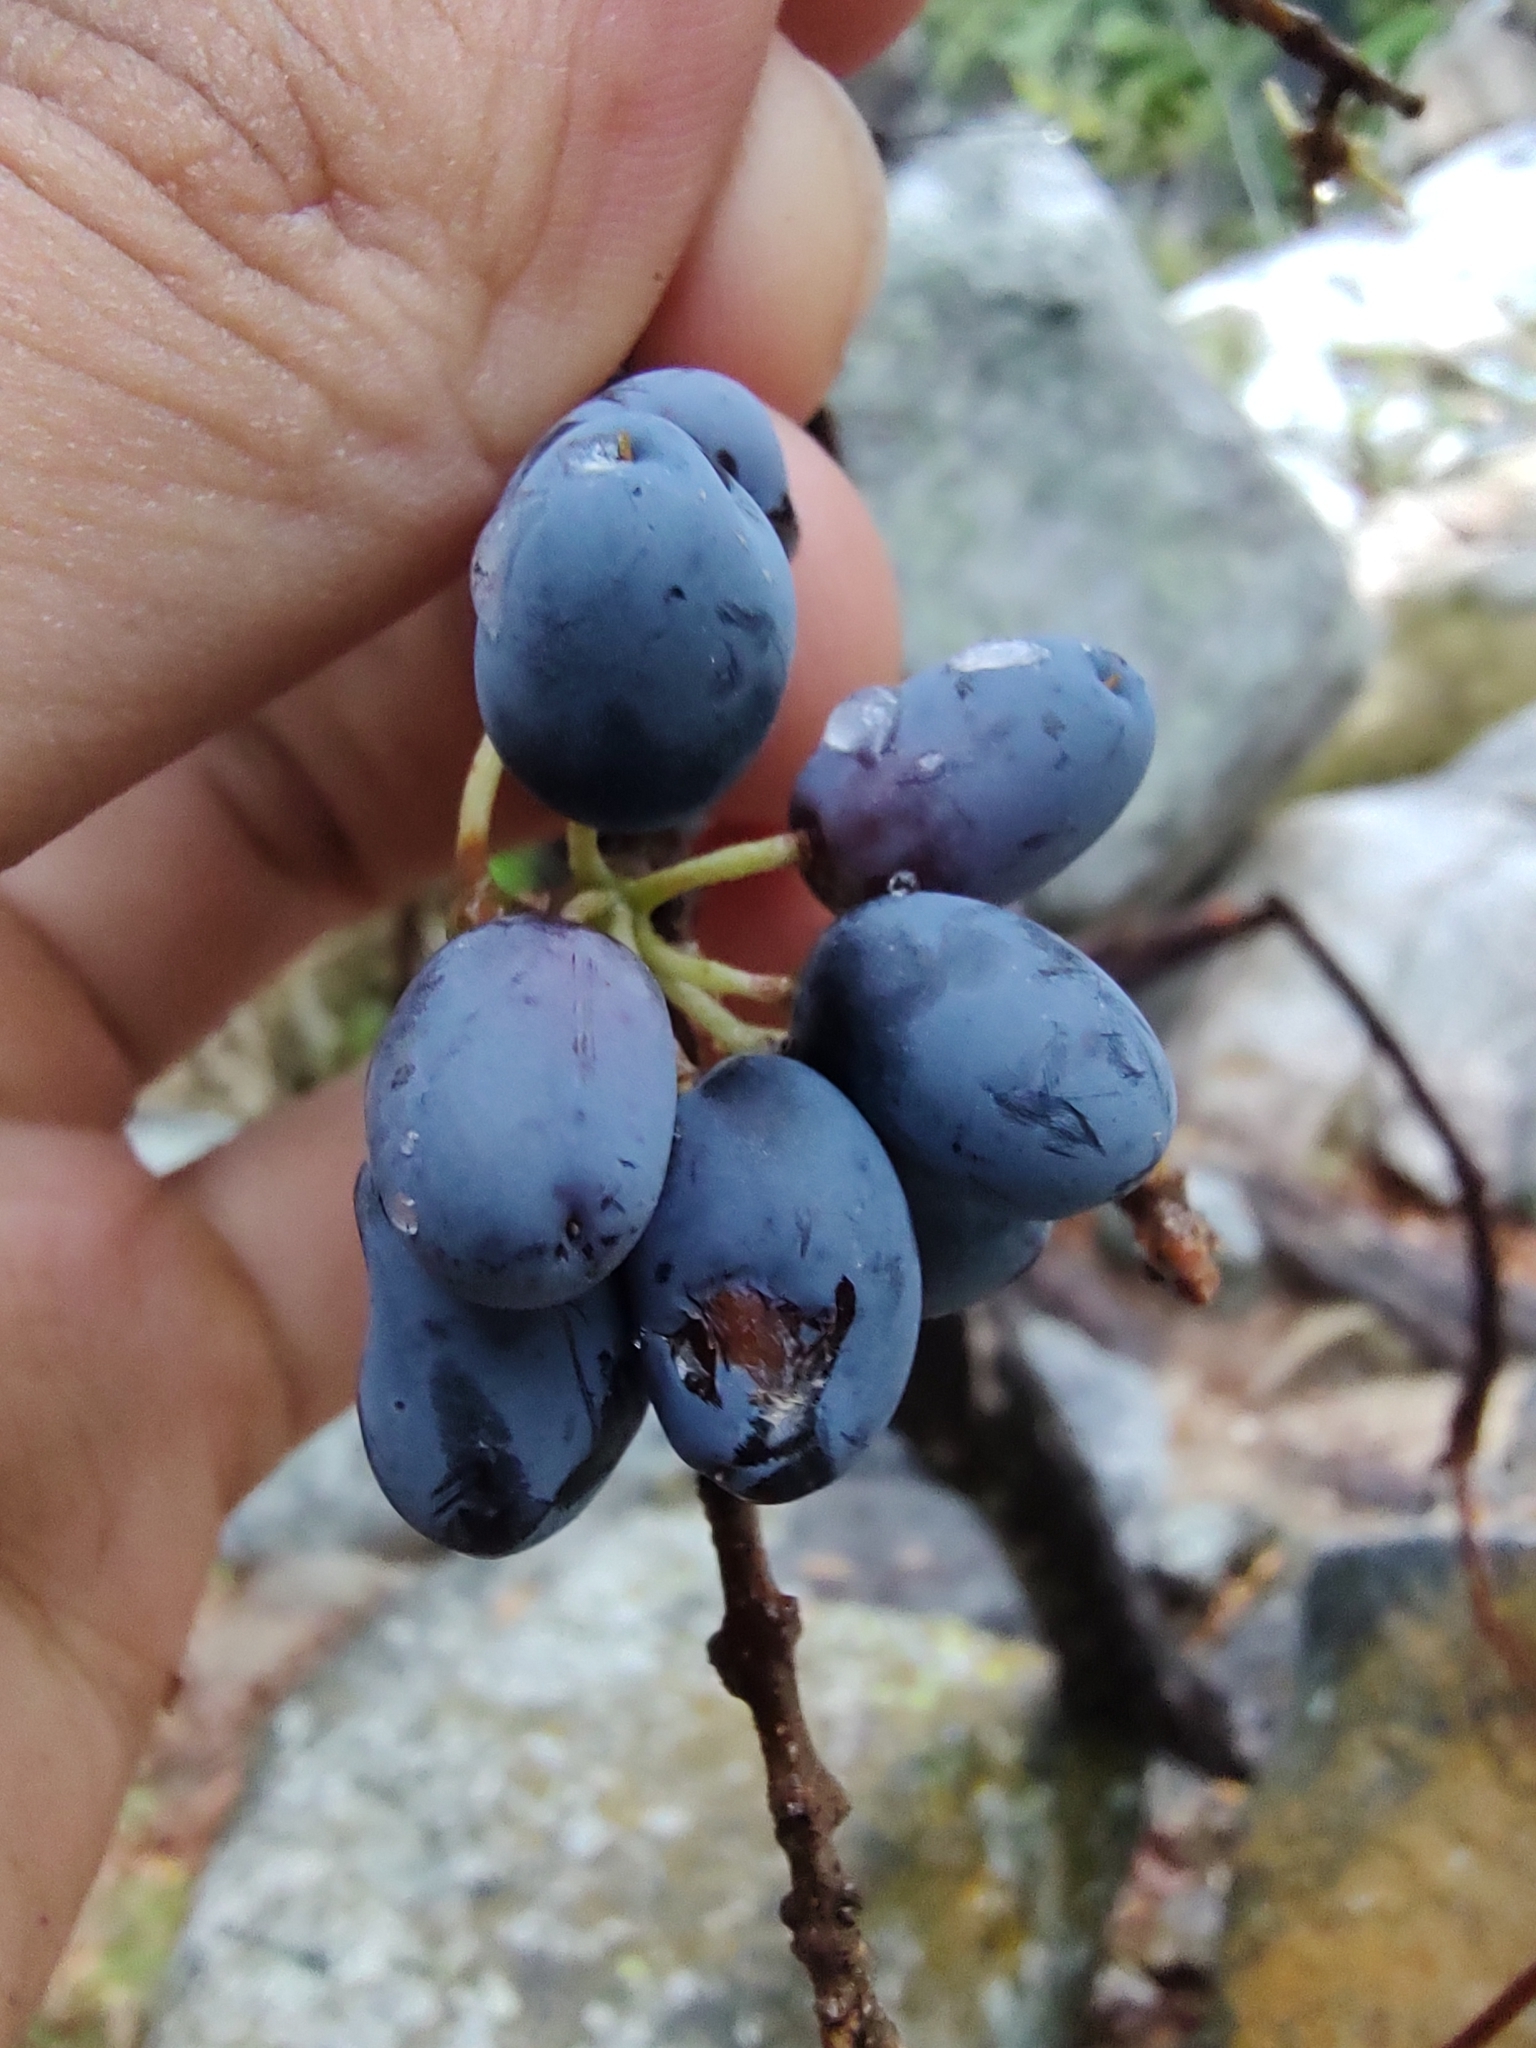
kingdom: Plantae
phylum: Tracheophyta
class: Magnoliopsida
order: Lamiales
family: Oleaceae
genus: Forestiera
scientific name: Forestiera macrocarpa
